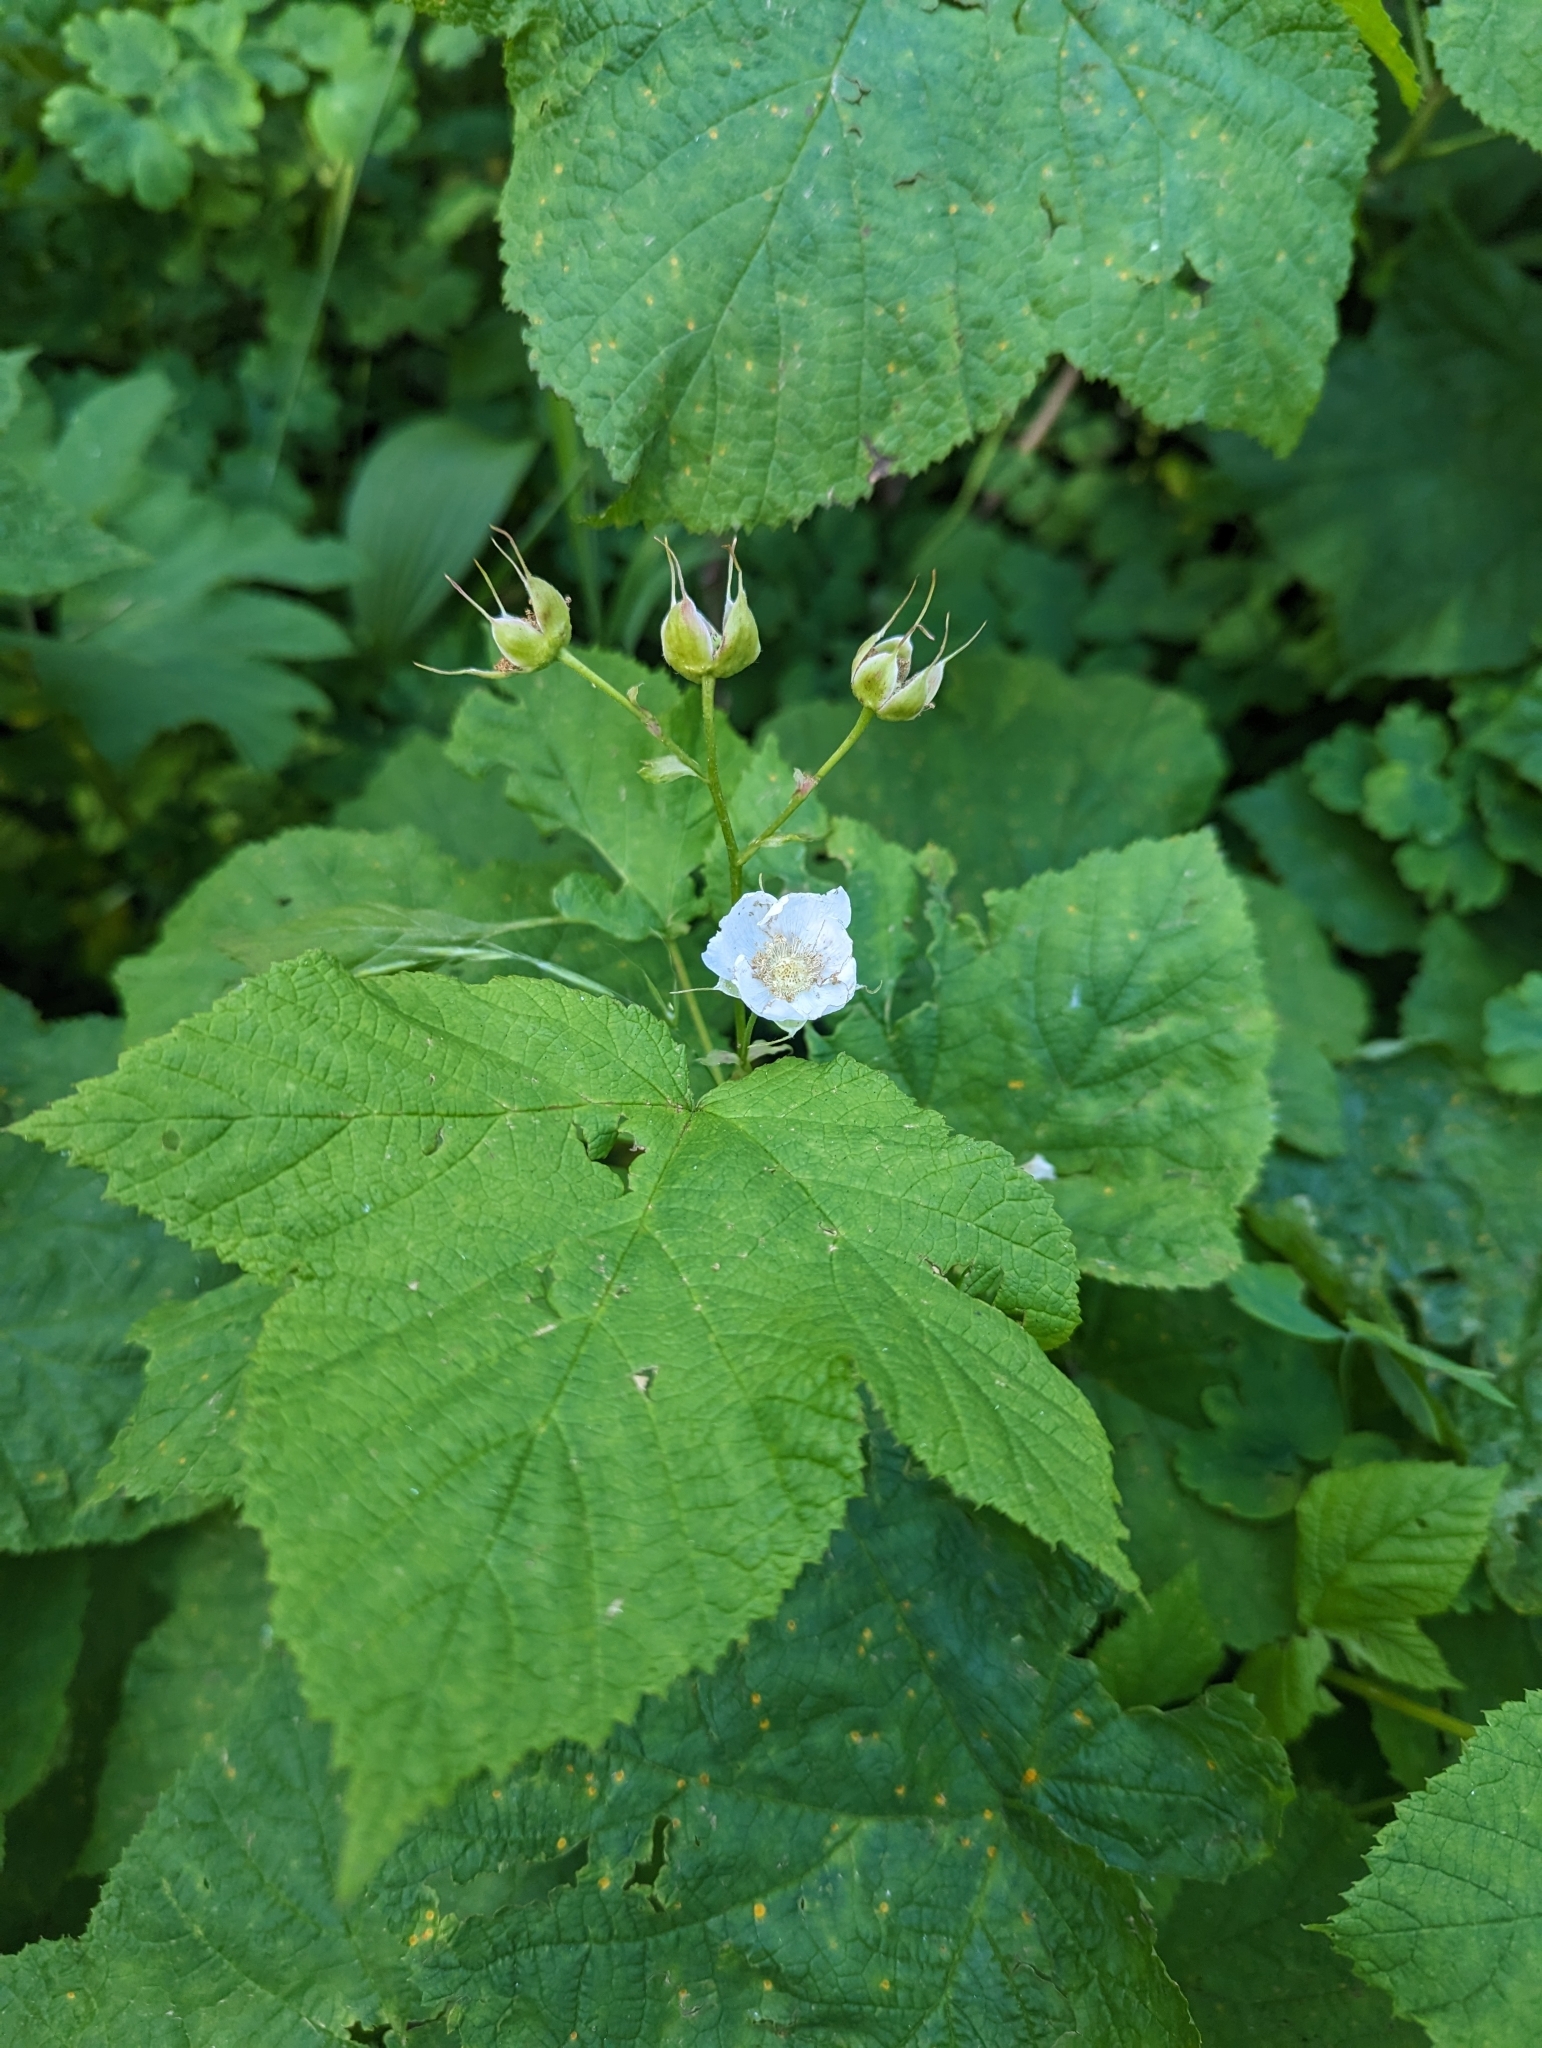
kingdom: Plantae
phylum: Tracheophyta
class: Magnoliopsida
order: Rosales
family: Rosaceae
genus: Rubus
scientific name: Rubus parviflorus
